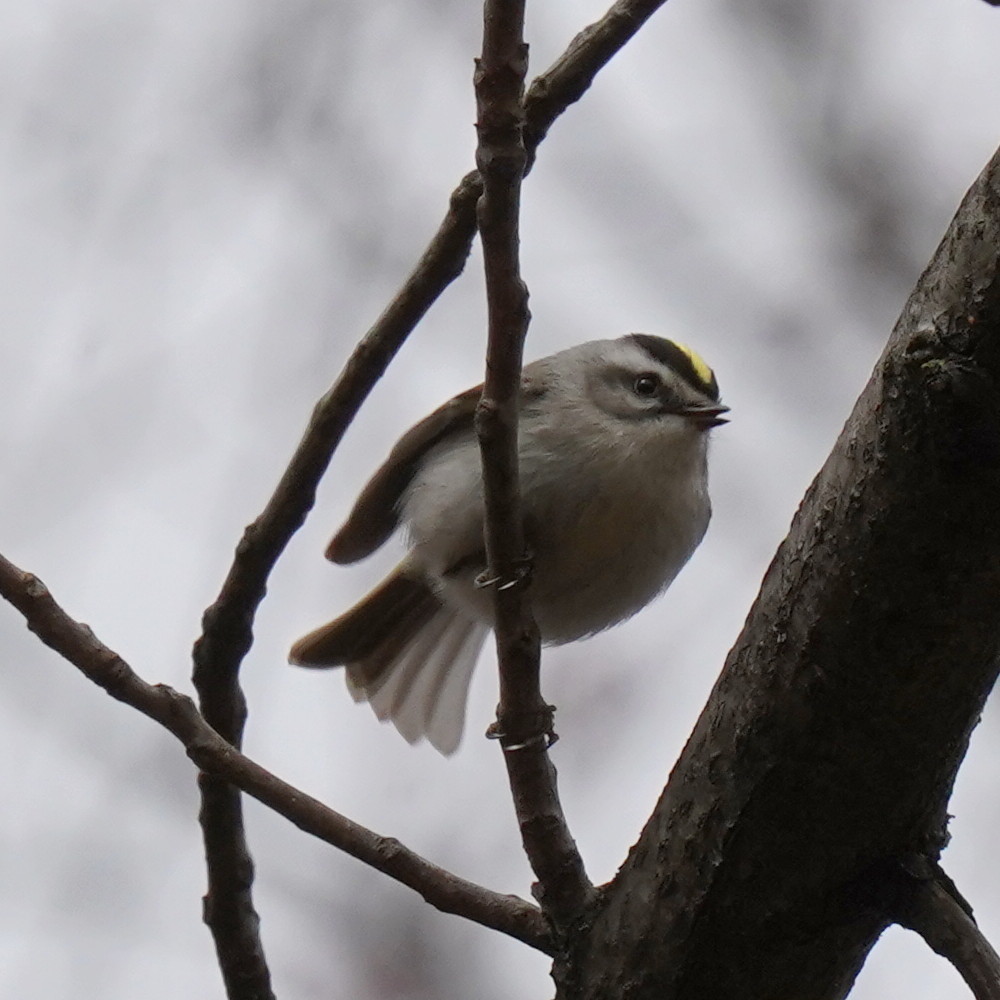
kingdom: Animalia
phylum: Chordata
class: Aves
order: Passeriformes
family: Regulidae
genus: Regulus
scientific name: Regulus satrapa
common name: Golden-crowned kinglet
